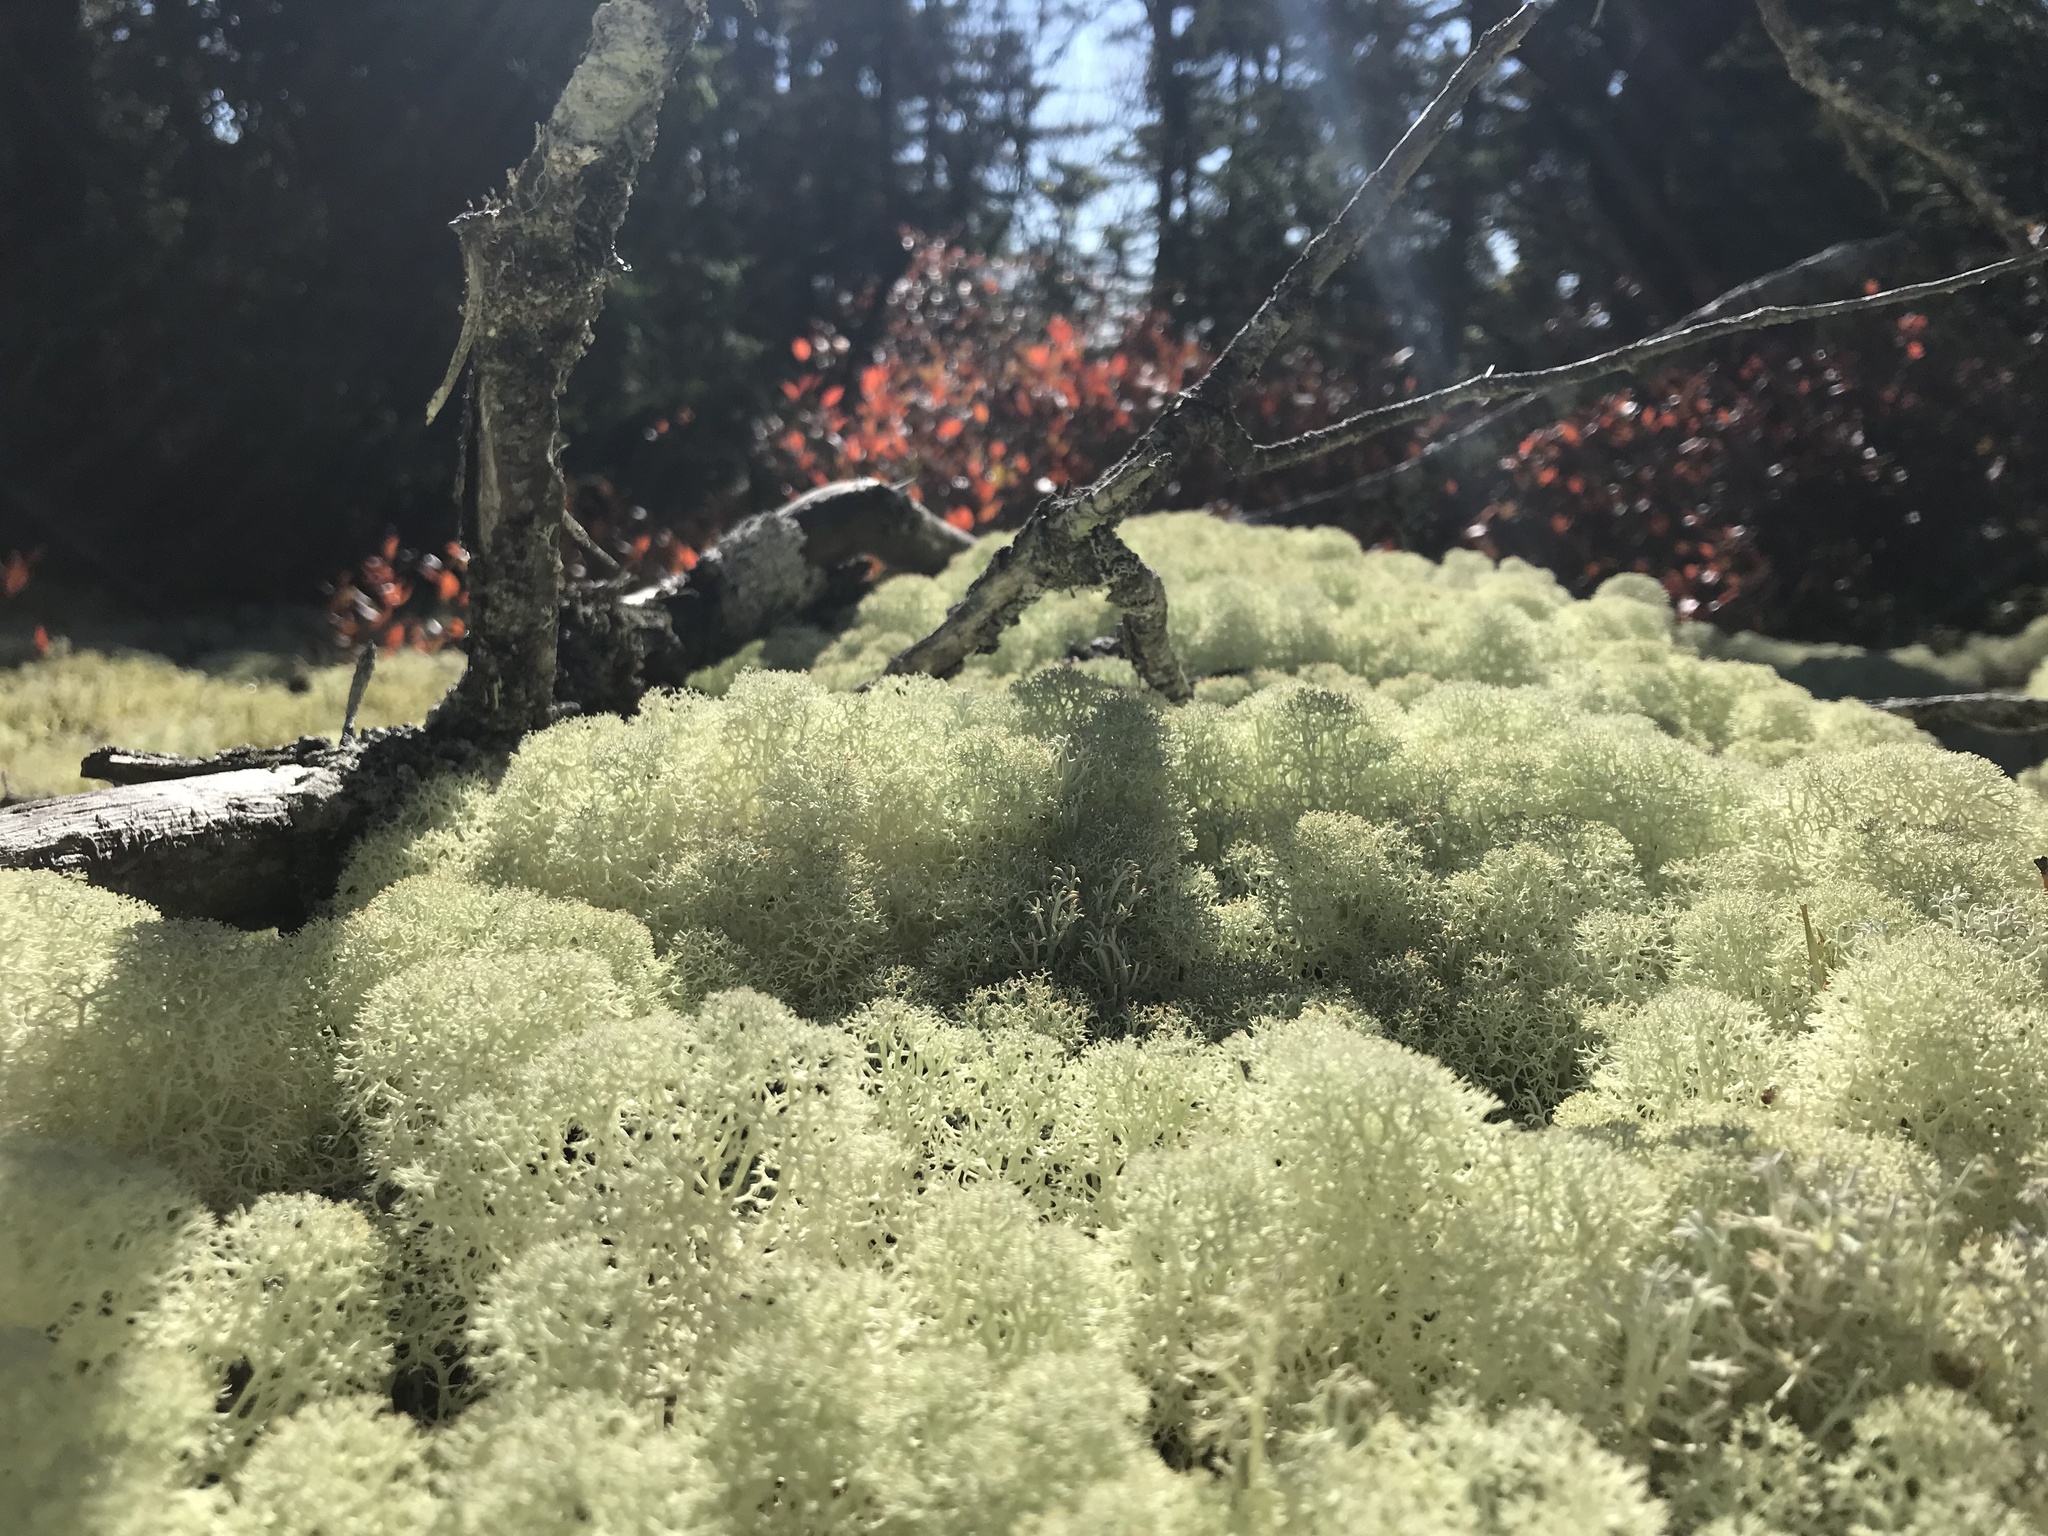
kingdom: Fungi
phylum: Ascomycota
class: Lecanoromycetes
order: Lecanorales
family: Cladoniaceae
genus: Cladonia
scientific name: Cladonia stellaris
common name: Star-tipped reindeer lichen
